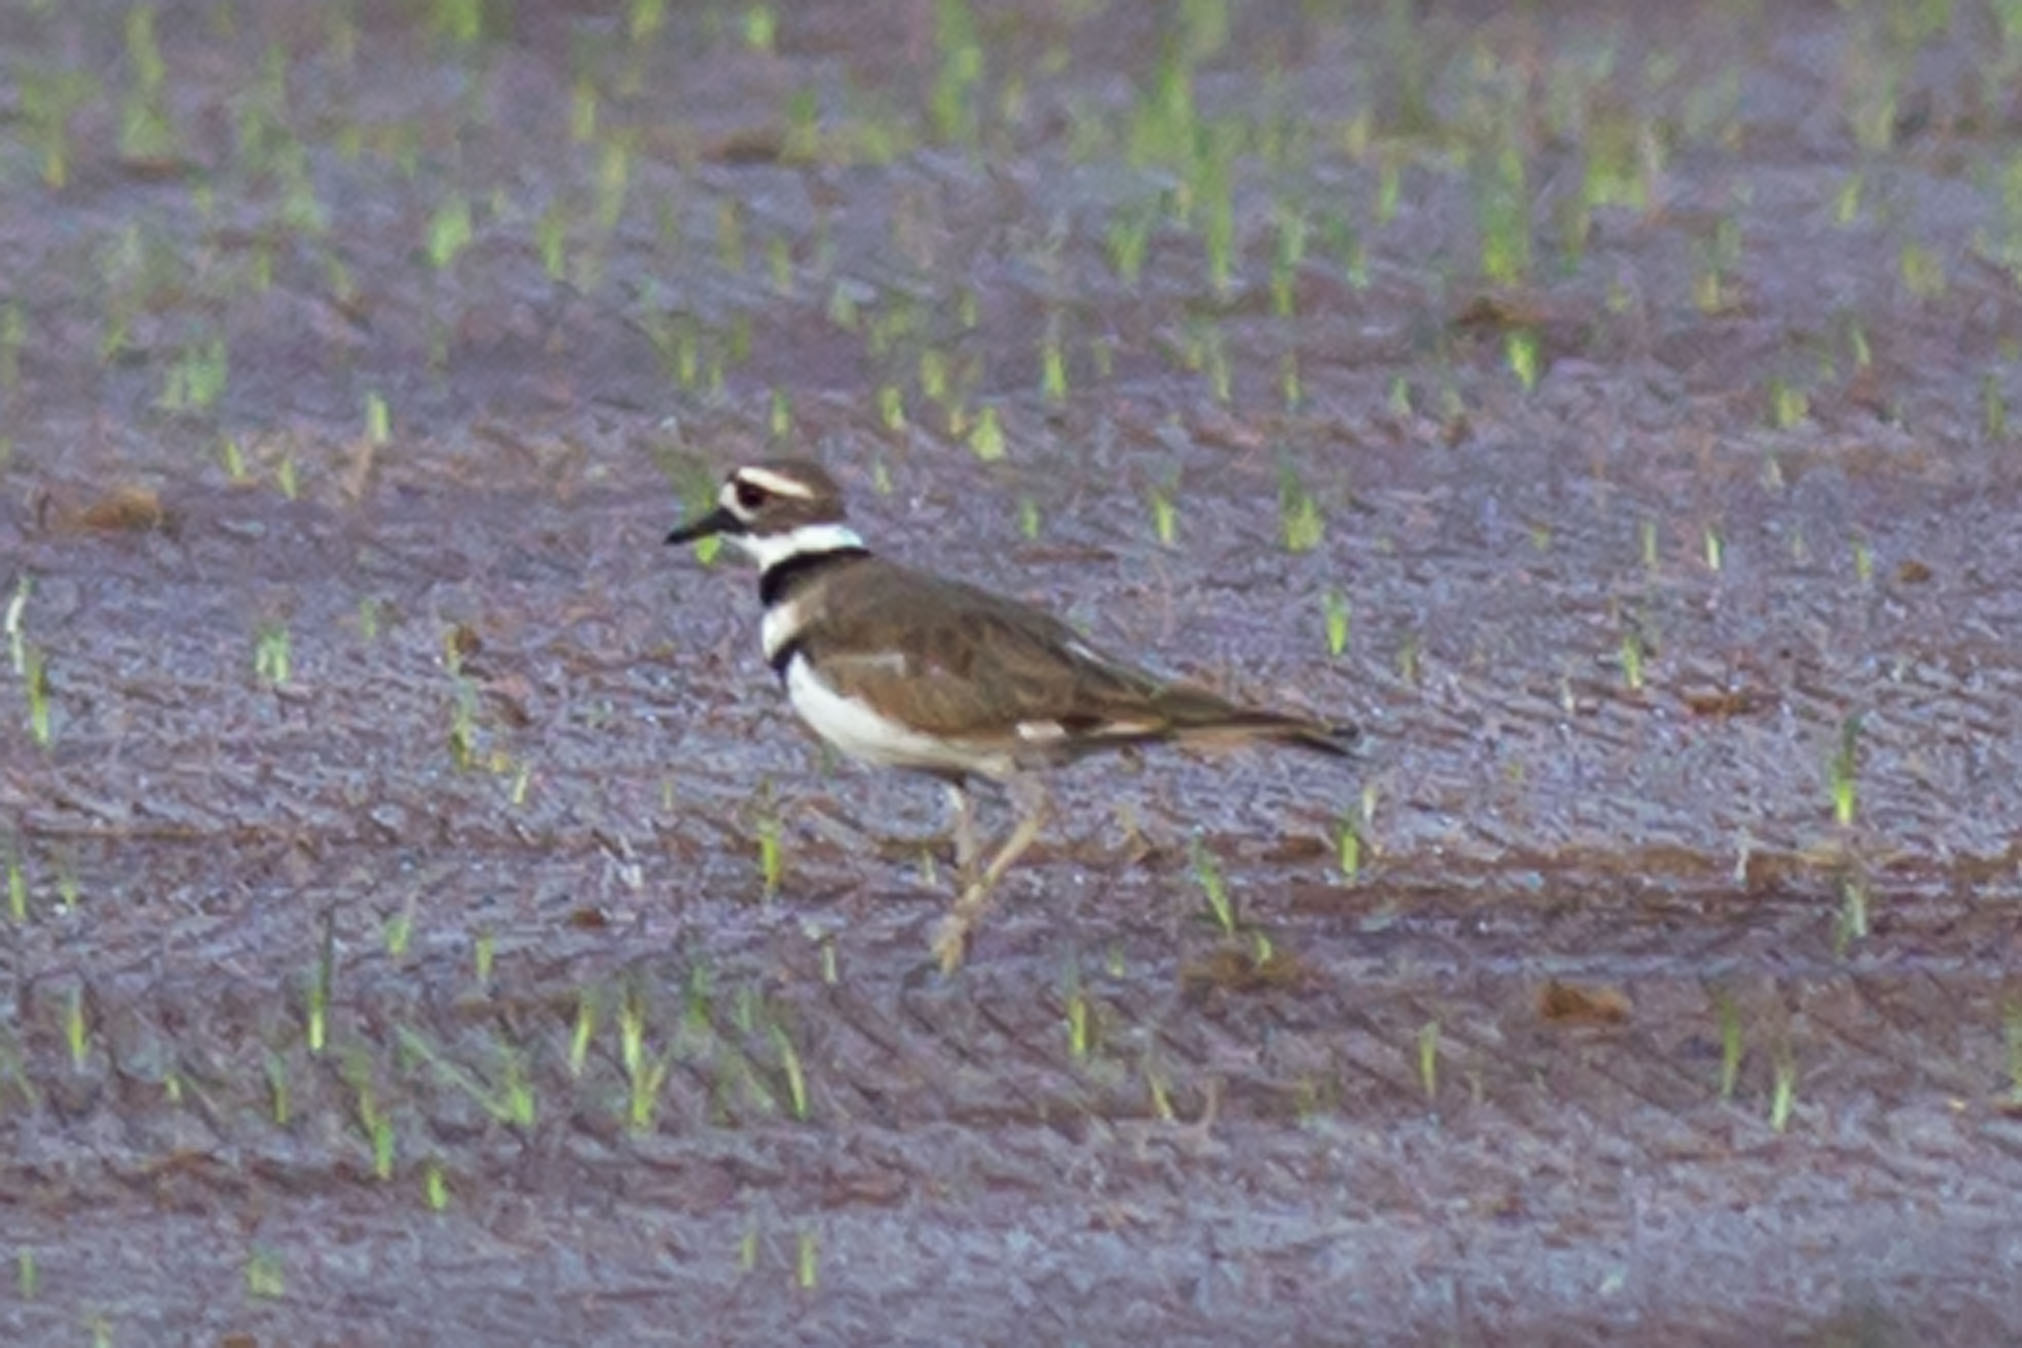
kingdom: Animalia
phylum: Chordata
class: Aves
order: Charadriiformes
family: Charadriidae
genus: Charadrius
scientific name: Charadrius vociferus
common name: Killdeer
